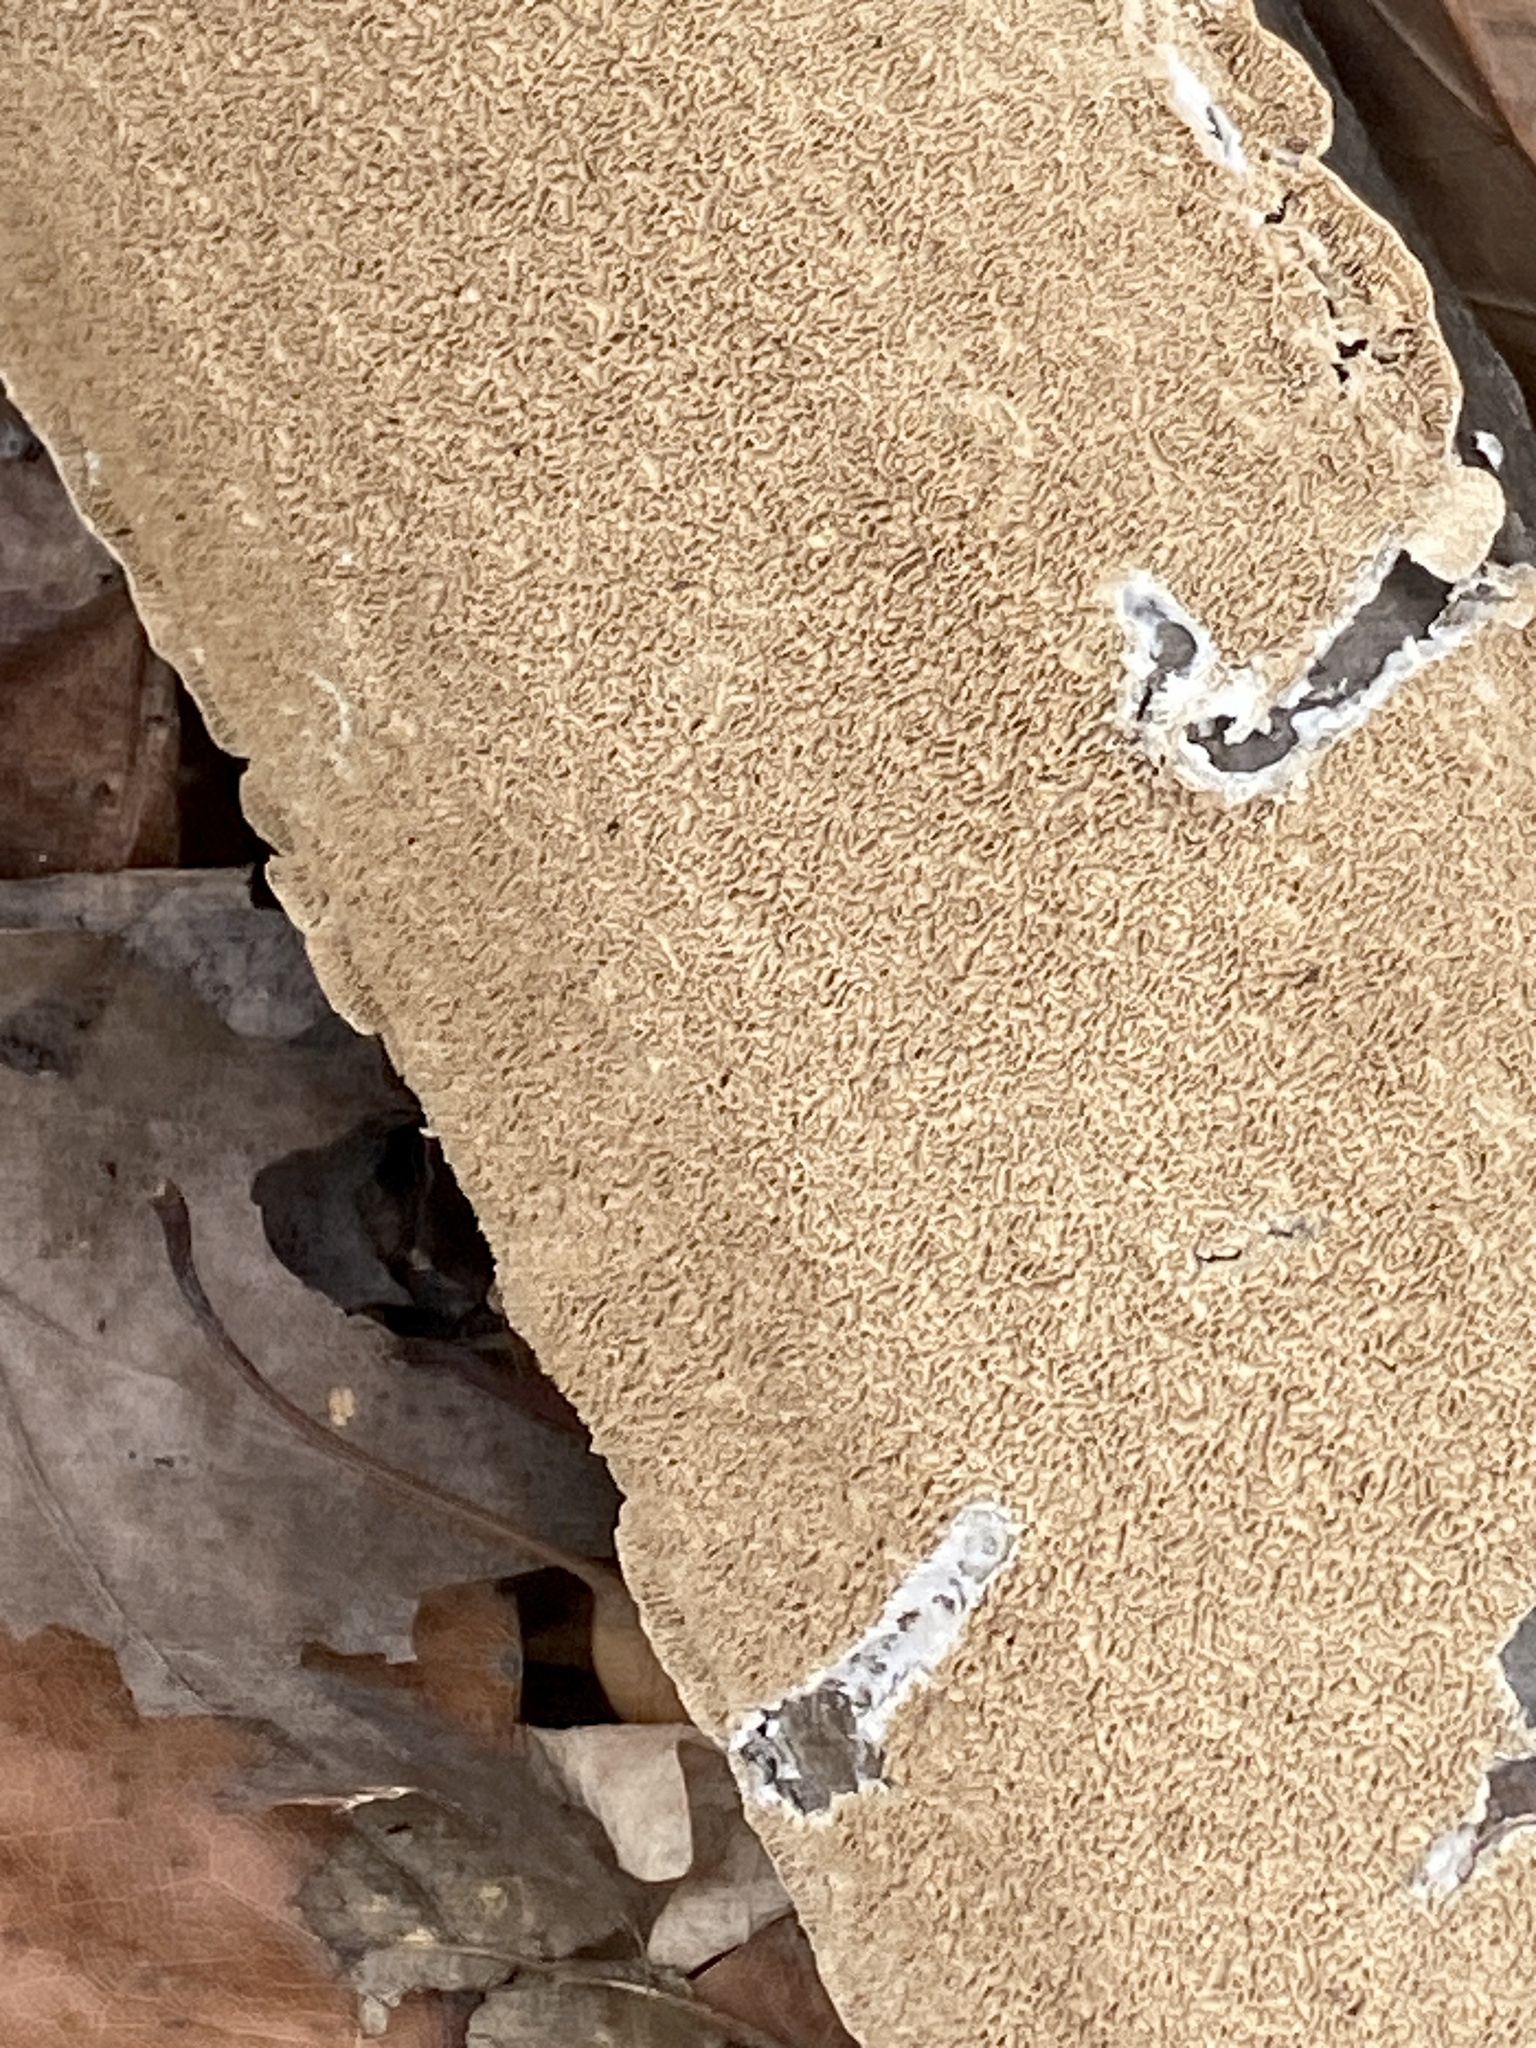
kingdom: Fungi
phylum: Basidiomycota
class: Agaricomycetes
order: Polyporales
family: Irpicaceae
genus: Irpex
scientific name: Irpex lacteus
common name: Milk-white toothed polypore
